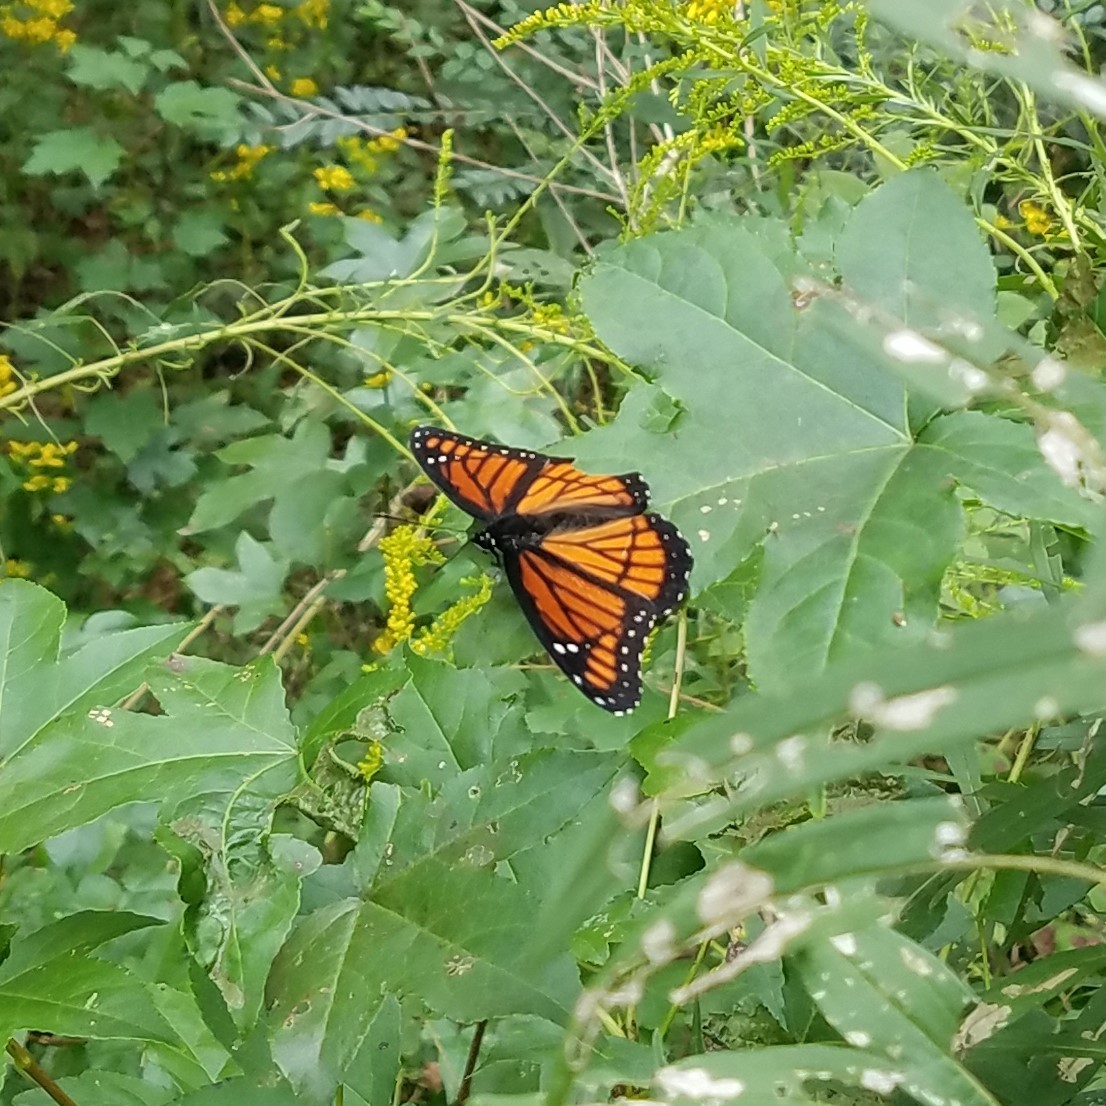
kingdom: Animalia
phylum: Arthropoda
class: Insecta
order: Lepidoptera
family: Nymphalidae
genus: Limenitis
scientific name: Limenitis archippus
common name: Viceroy
